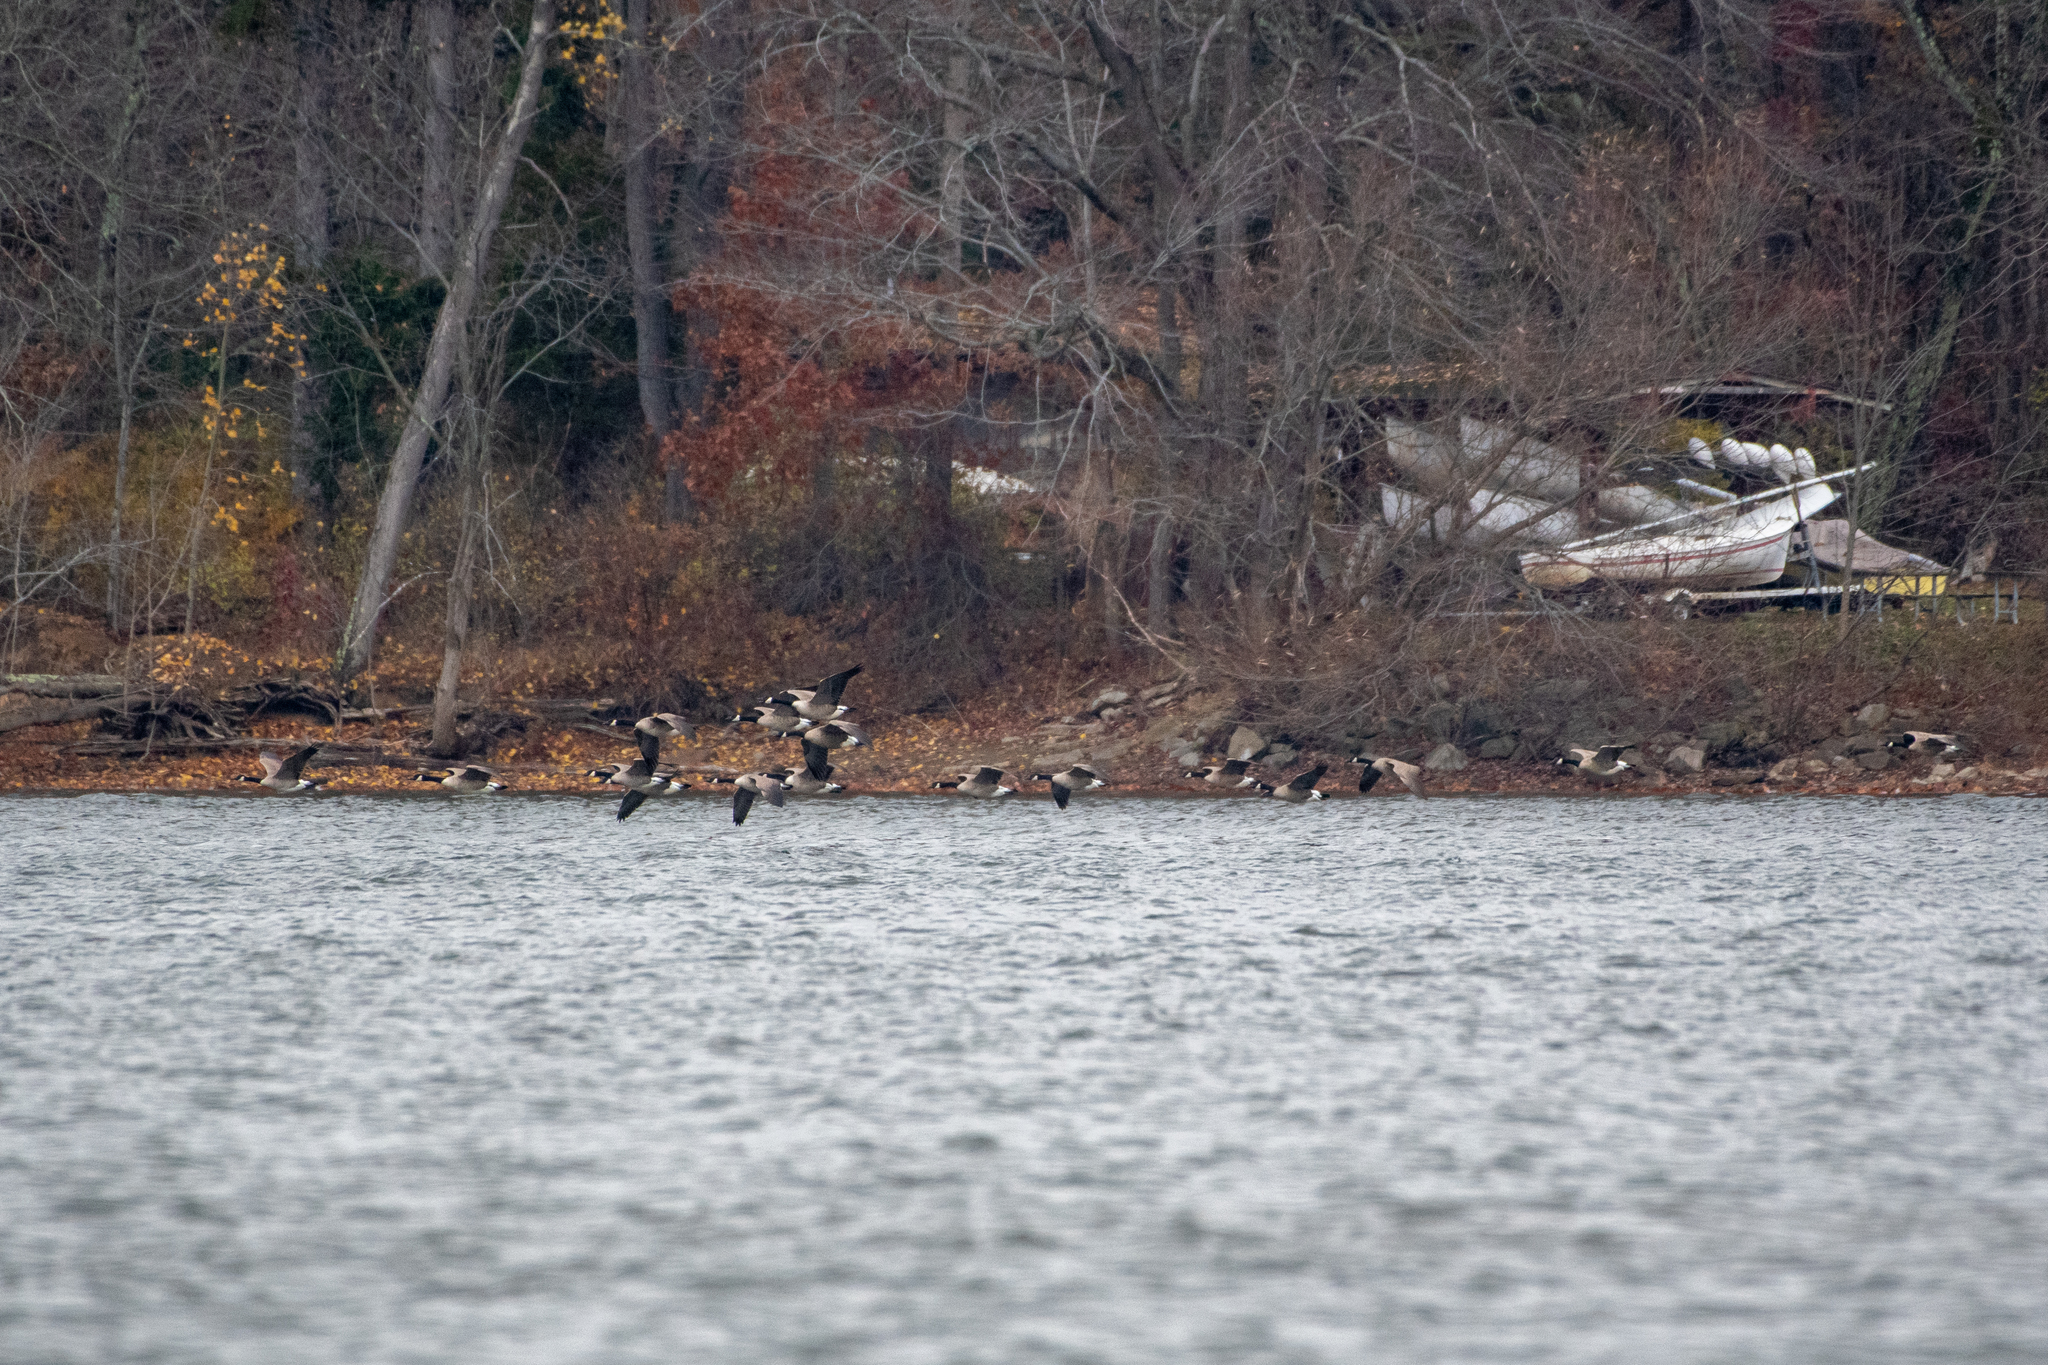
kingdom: Animalia
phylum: Chordata
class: Aves
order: Anseriformes
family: Anatidae
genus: Branta
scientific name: Branta canadensis
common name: Canada goose
